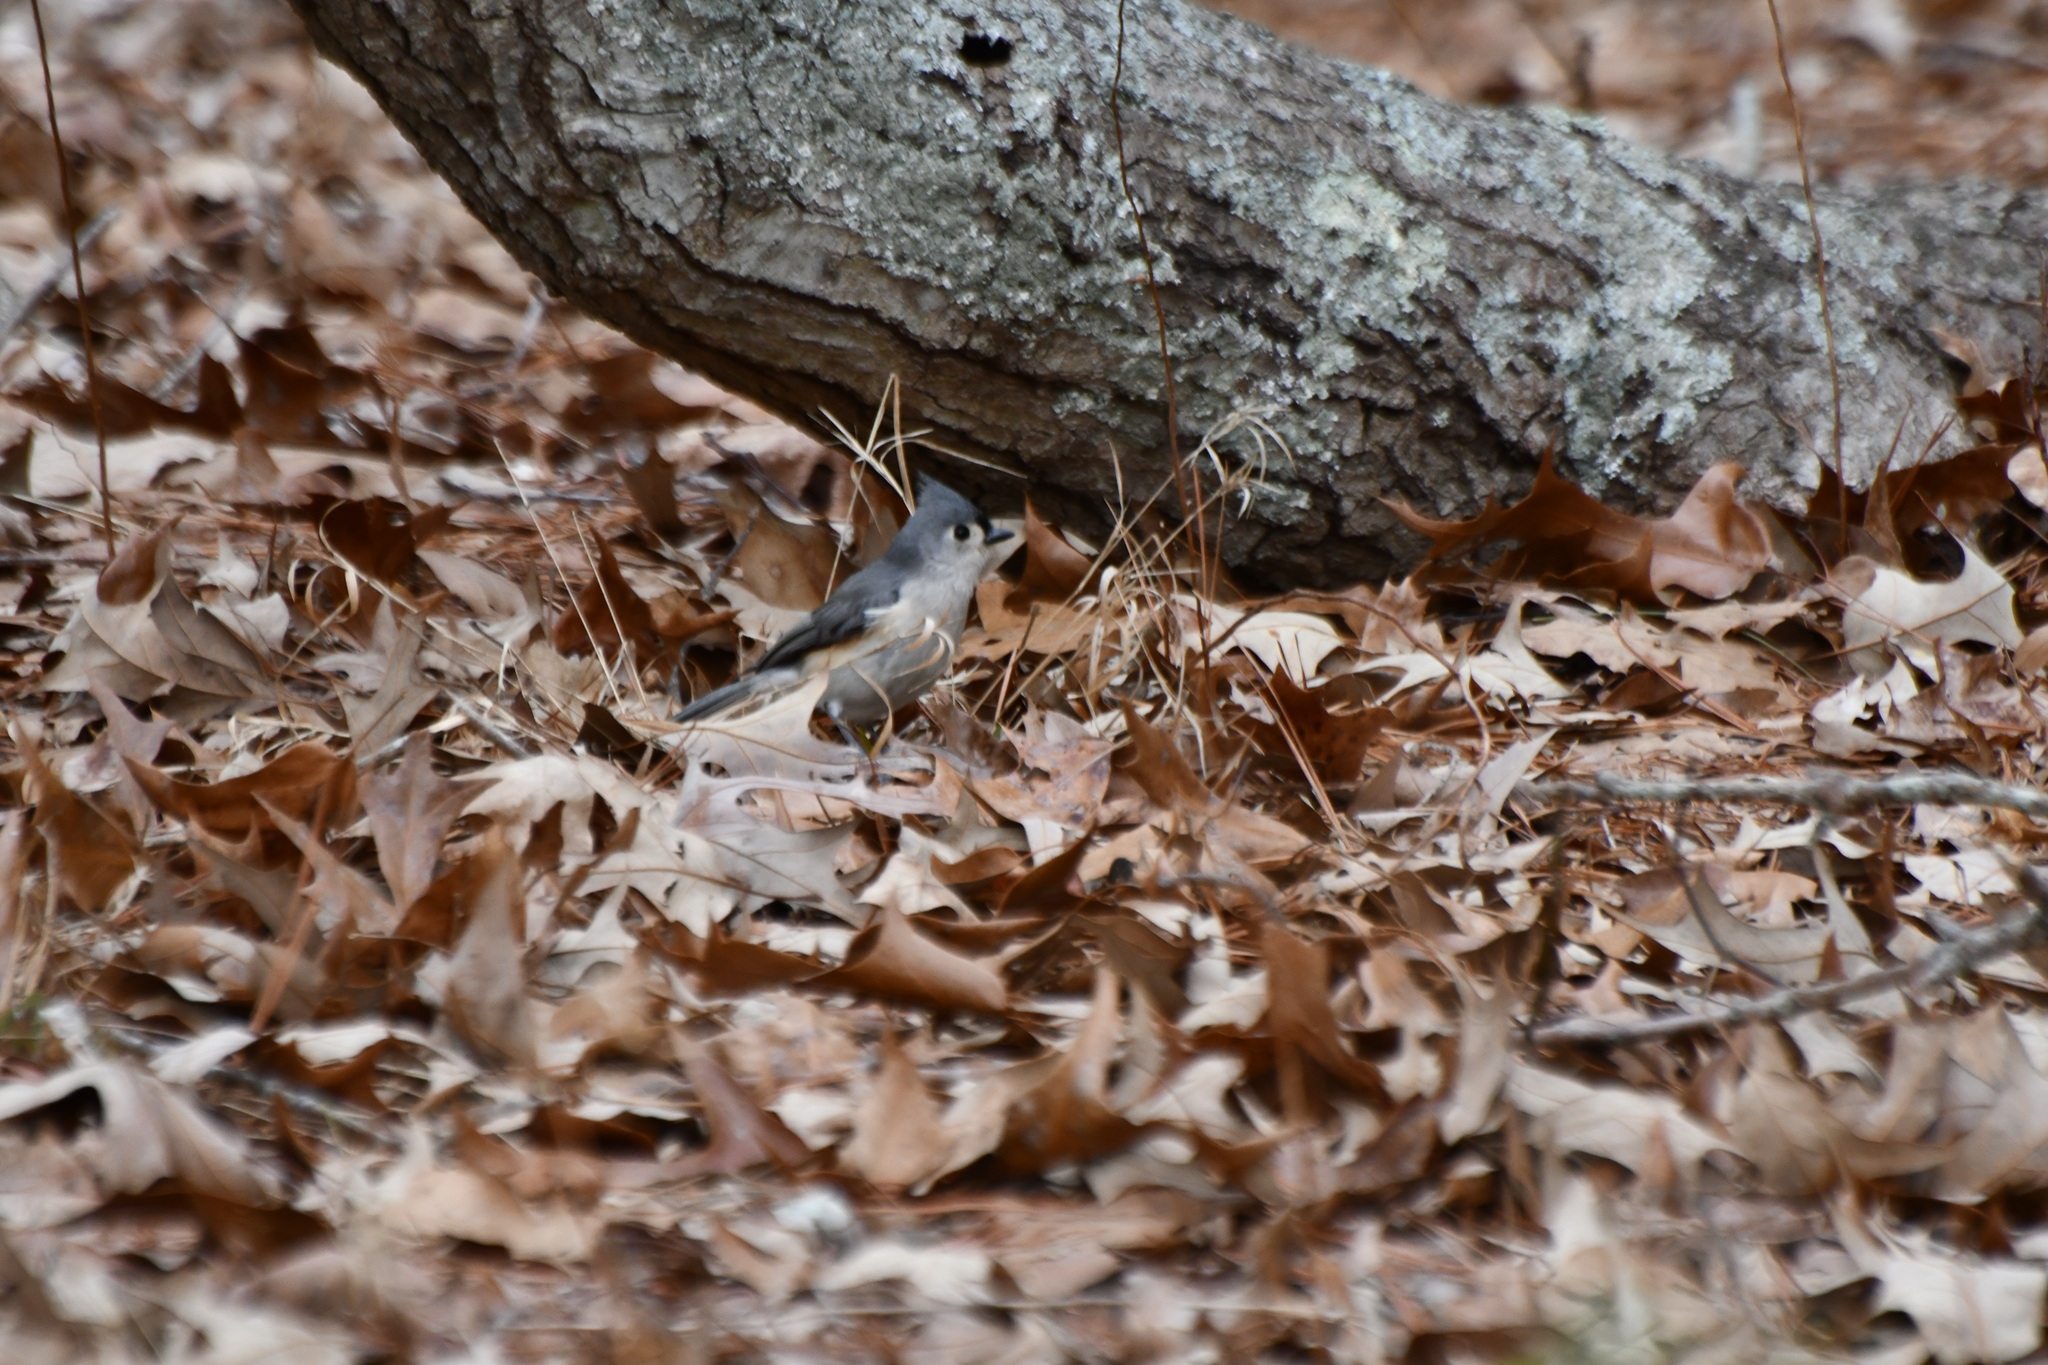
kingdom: Animalia
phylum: Chordata
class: Aves
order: Passeriformes
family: Paridae
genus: Baeolophus
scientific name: Baeolophus bicolor
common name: Tufted titmouse
